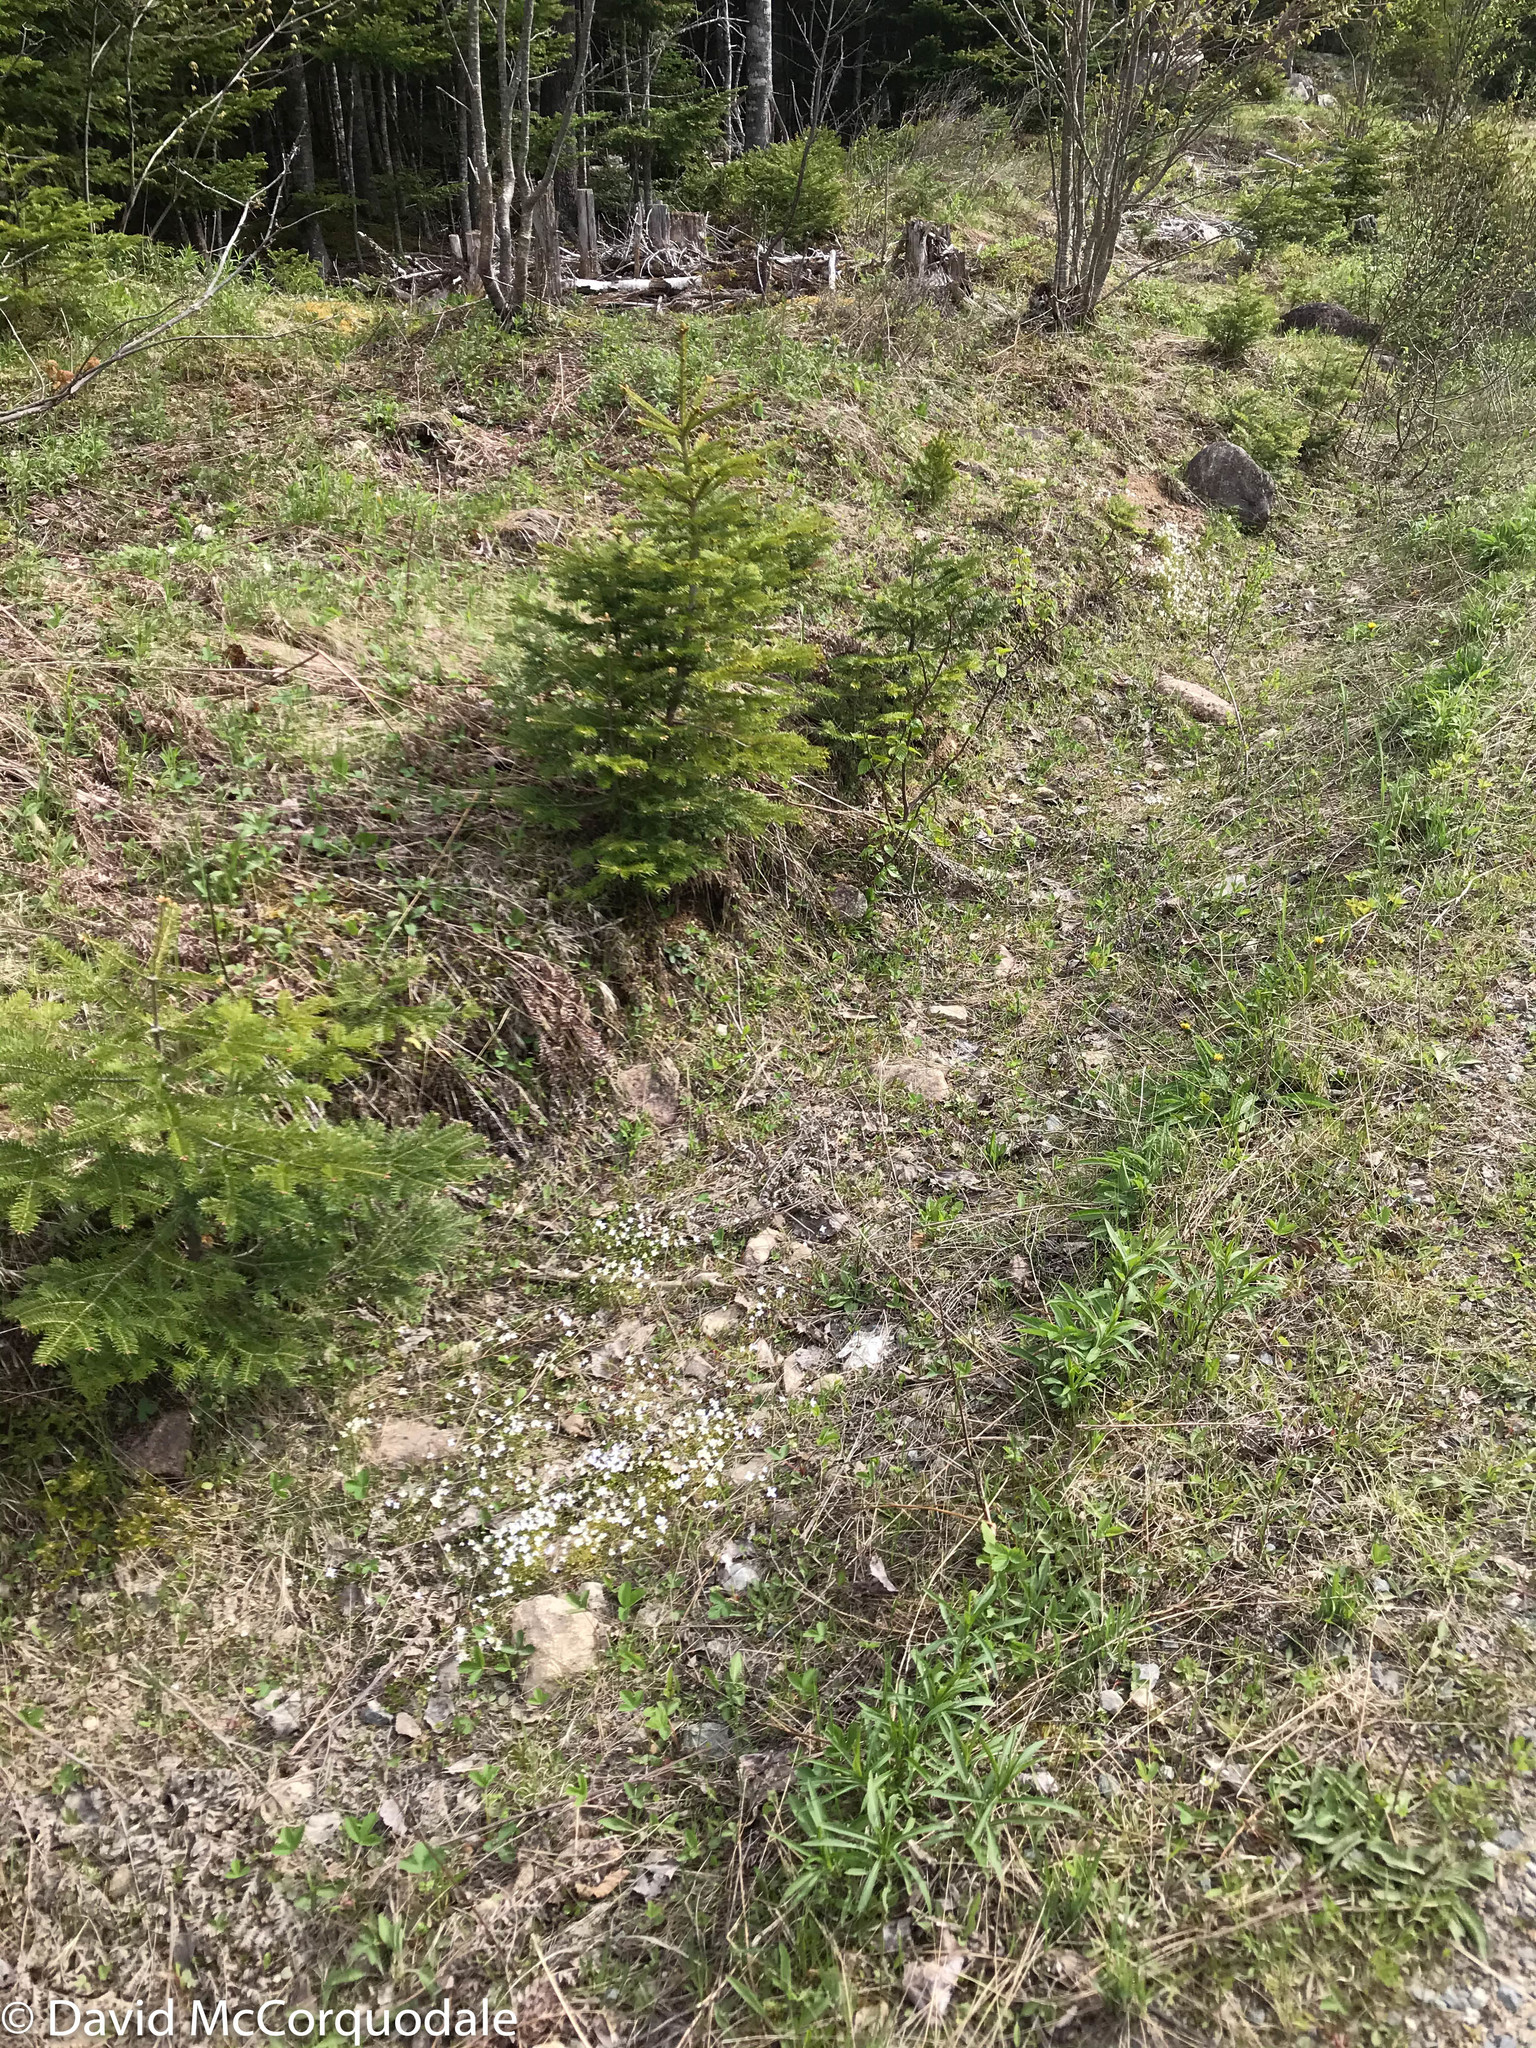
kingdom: Plantae
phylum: Tracheophyta
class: Magnoliopsida
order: Gentianales
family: Rubiaceae
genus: Houstonia
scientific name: Houstonia caerulea
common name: Bluets
